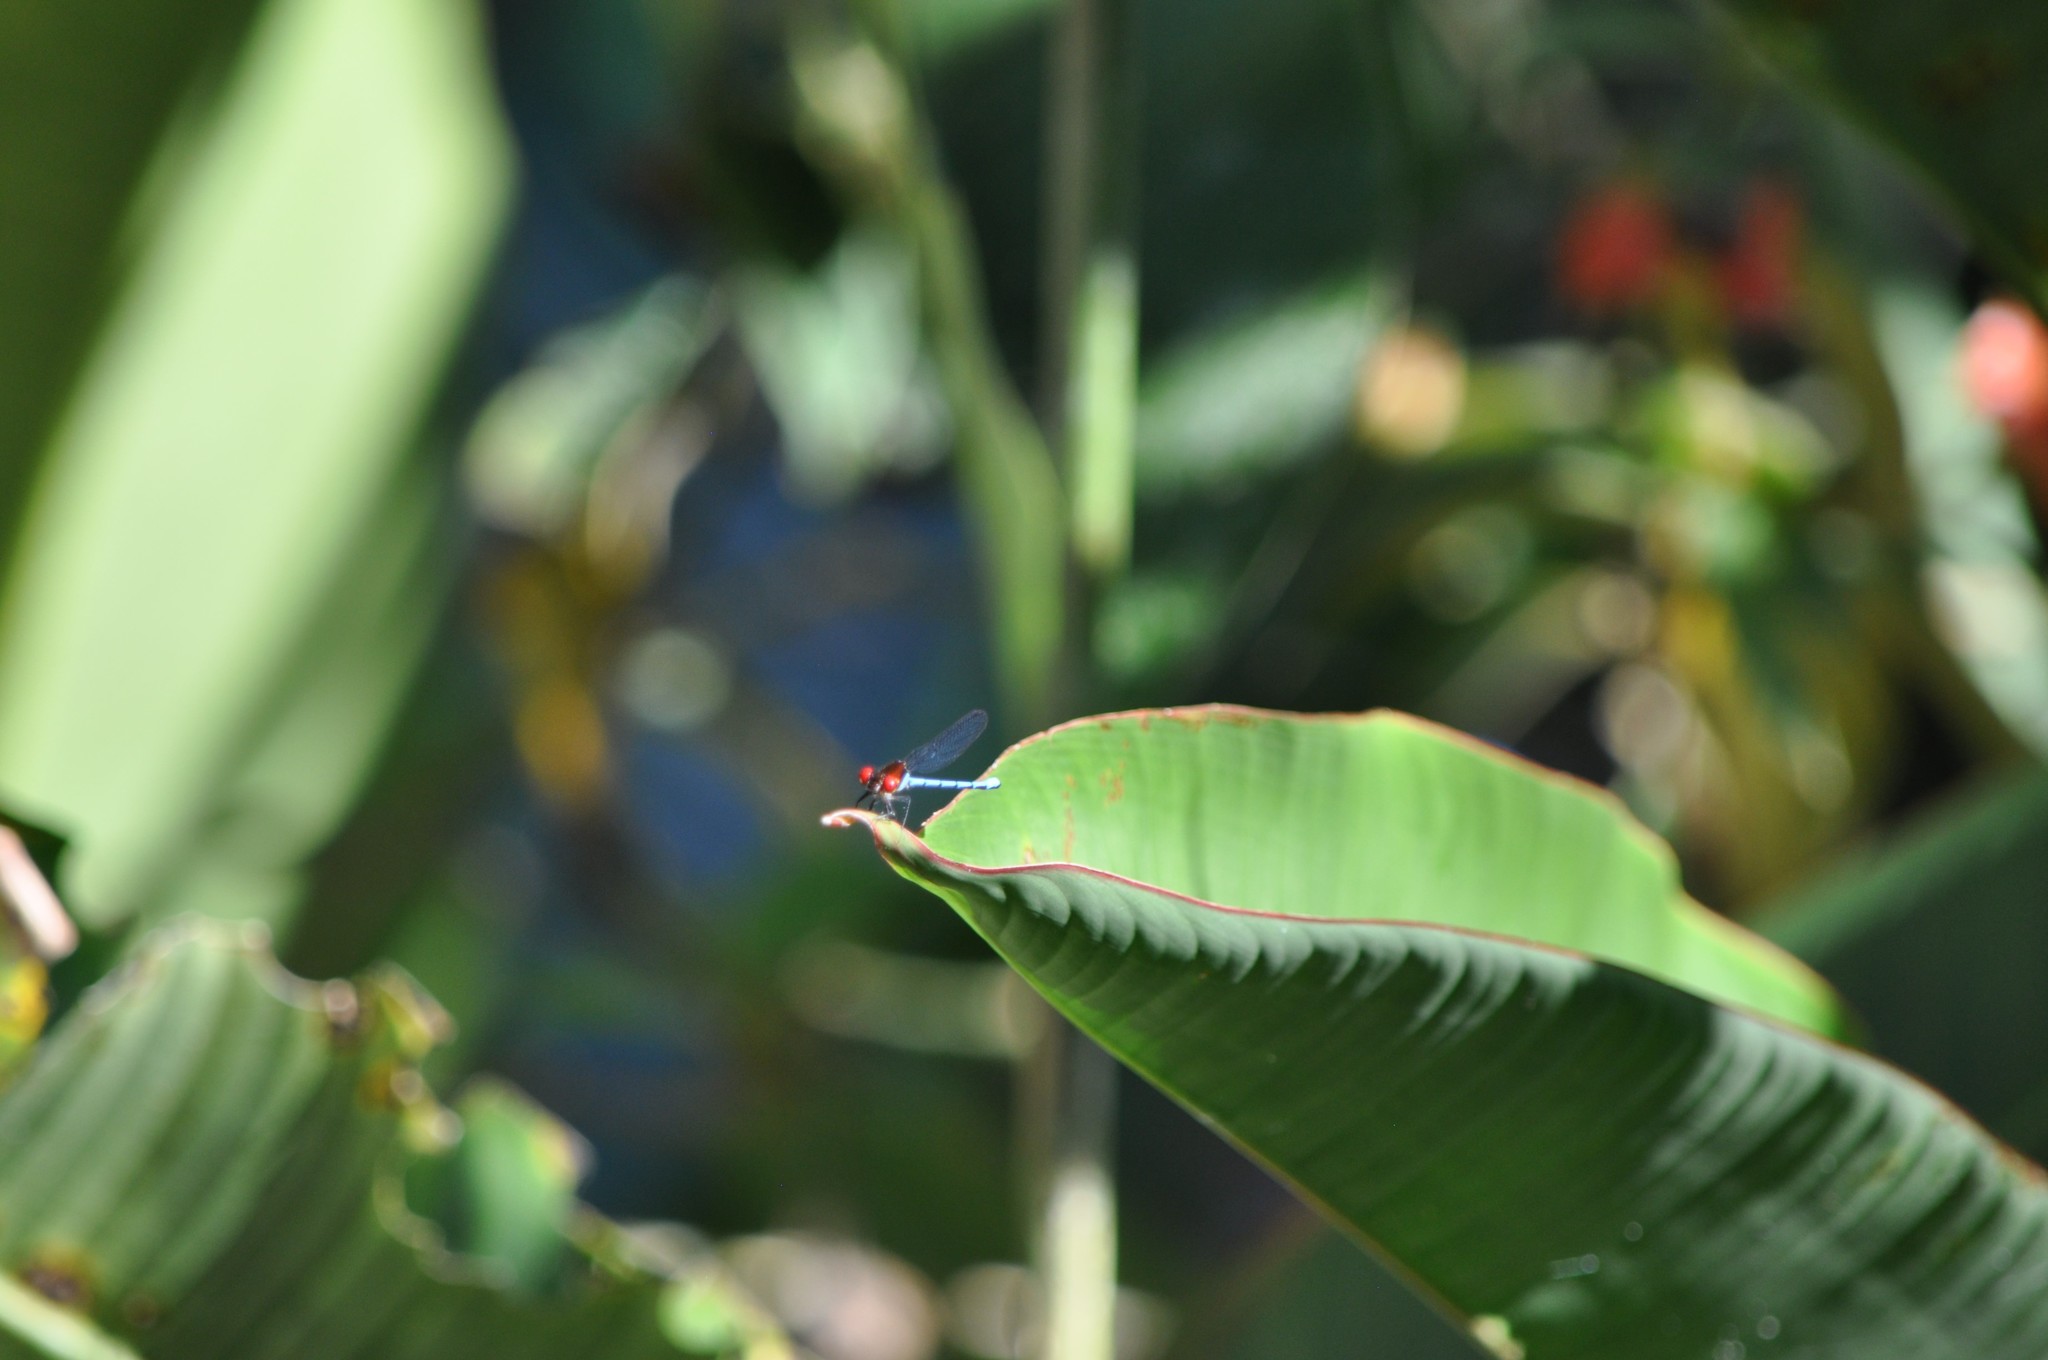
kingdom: Animalia
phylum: Arthropoda
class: Insecta
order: Odonata
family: Coenagrionidae
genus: Argia
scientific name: Argia cupraurea
